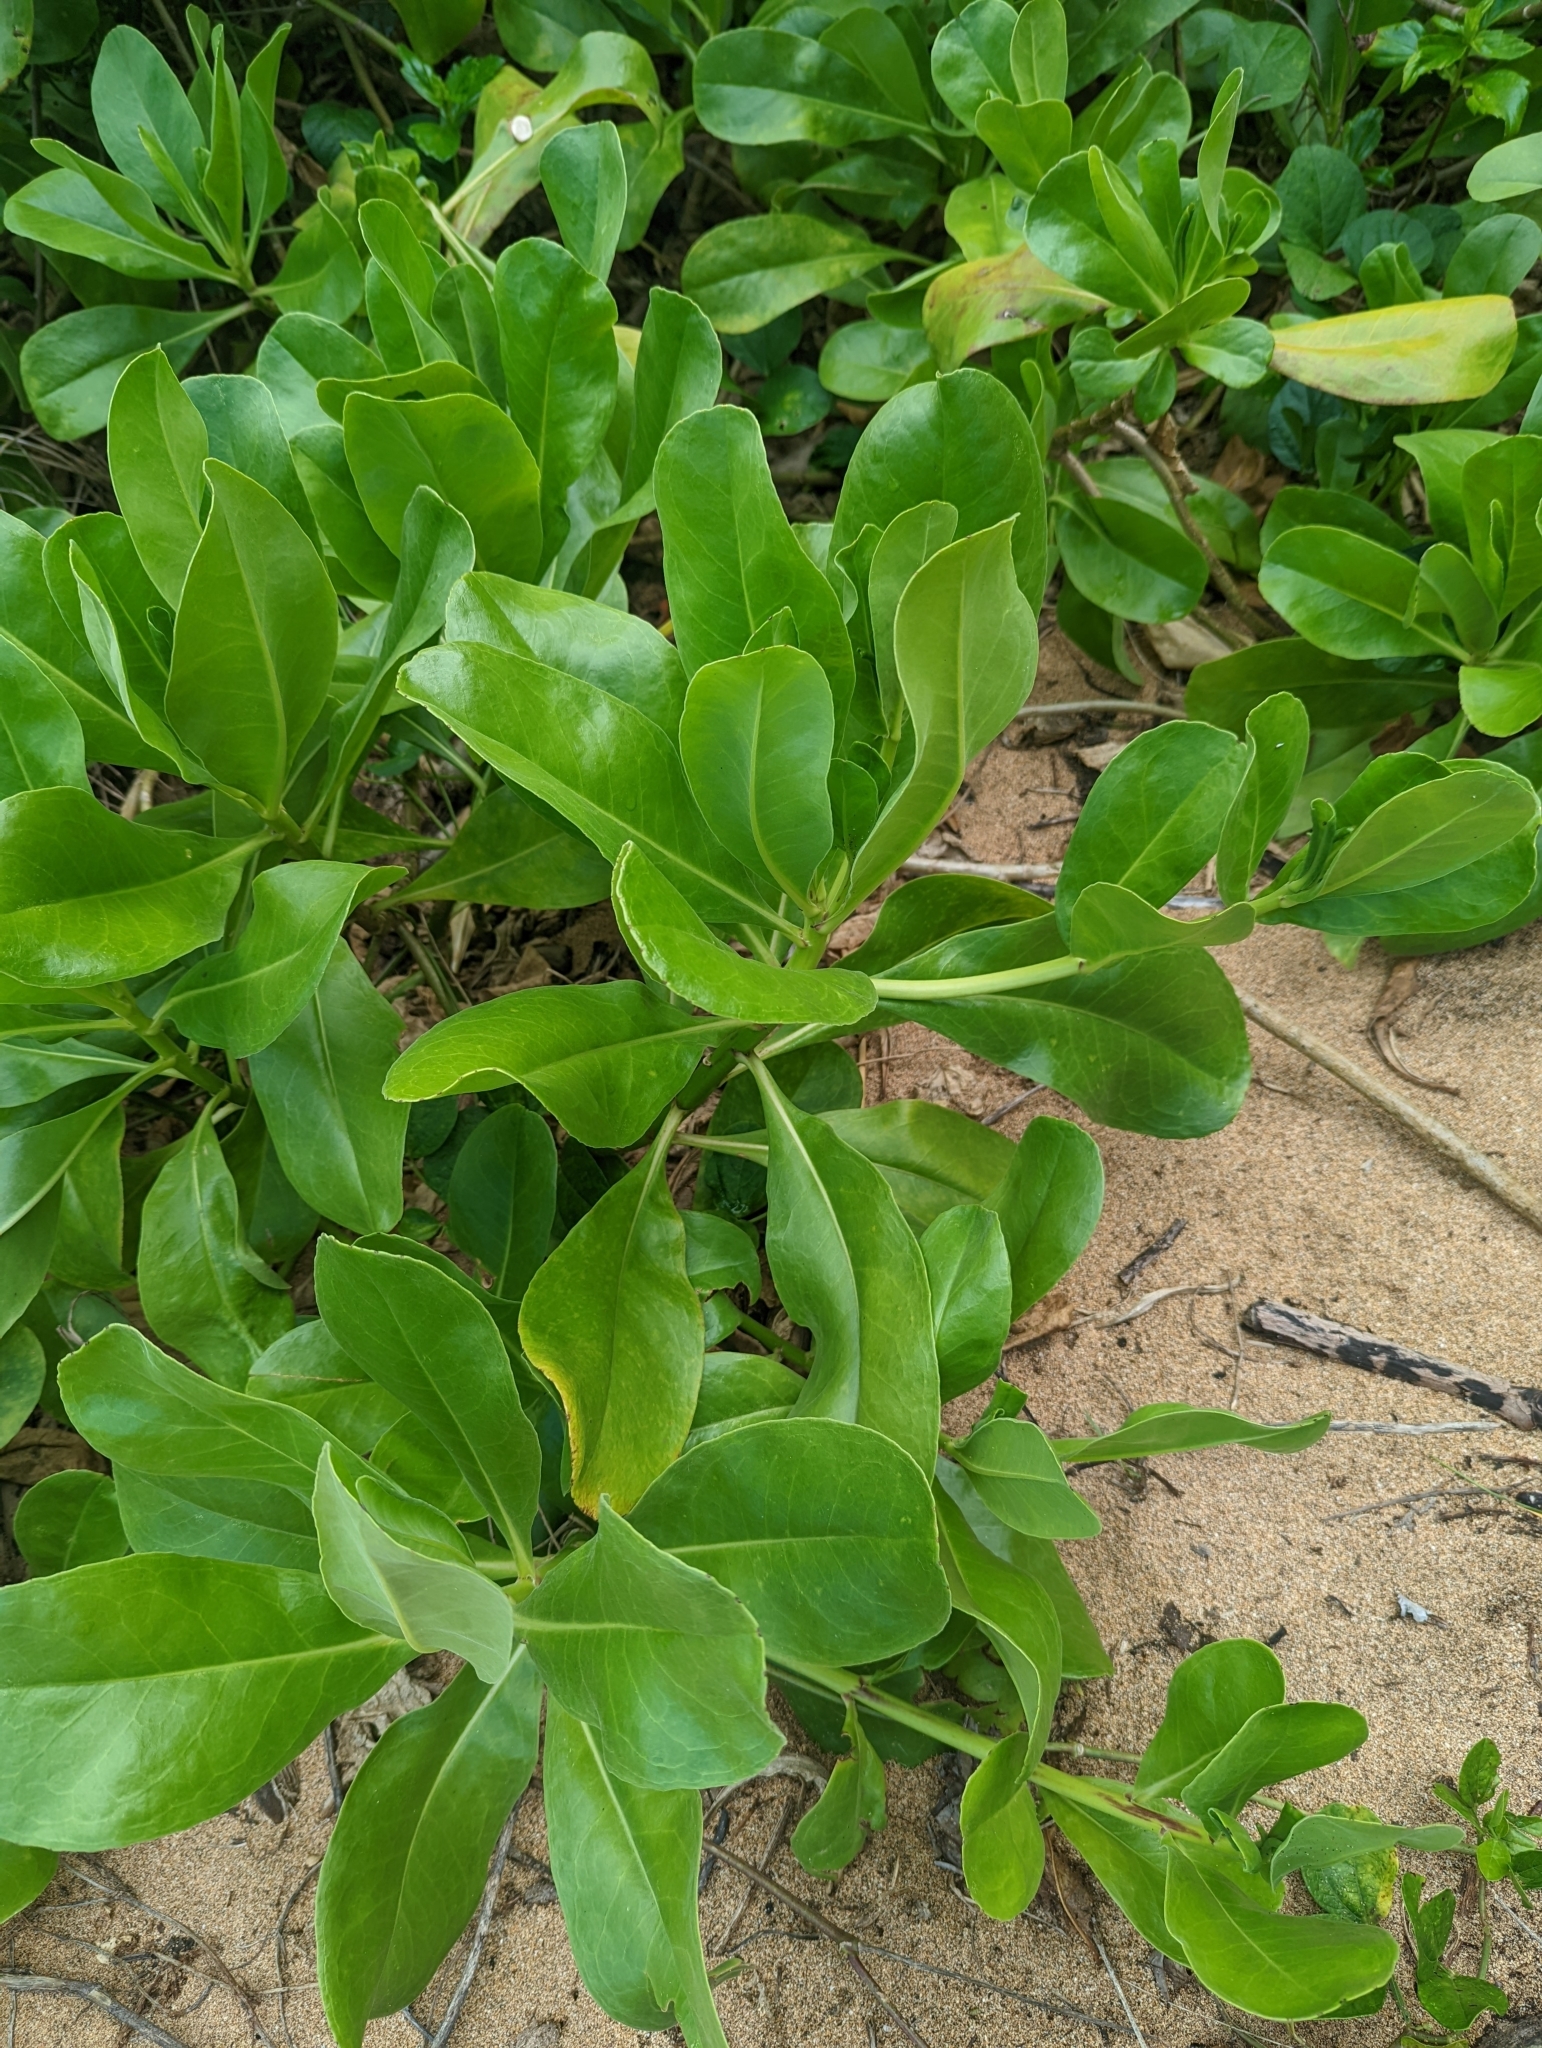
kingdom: Plantae
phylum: Tracheophyta
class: Magnoliopsida
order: Asterales
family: Goodeniaceae
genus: Scaevola
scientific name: Scaevola taccada
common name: Sea lettucetree
